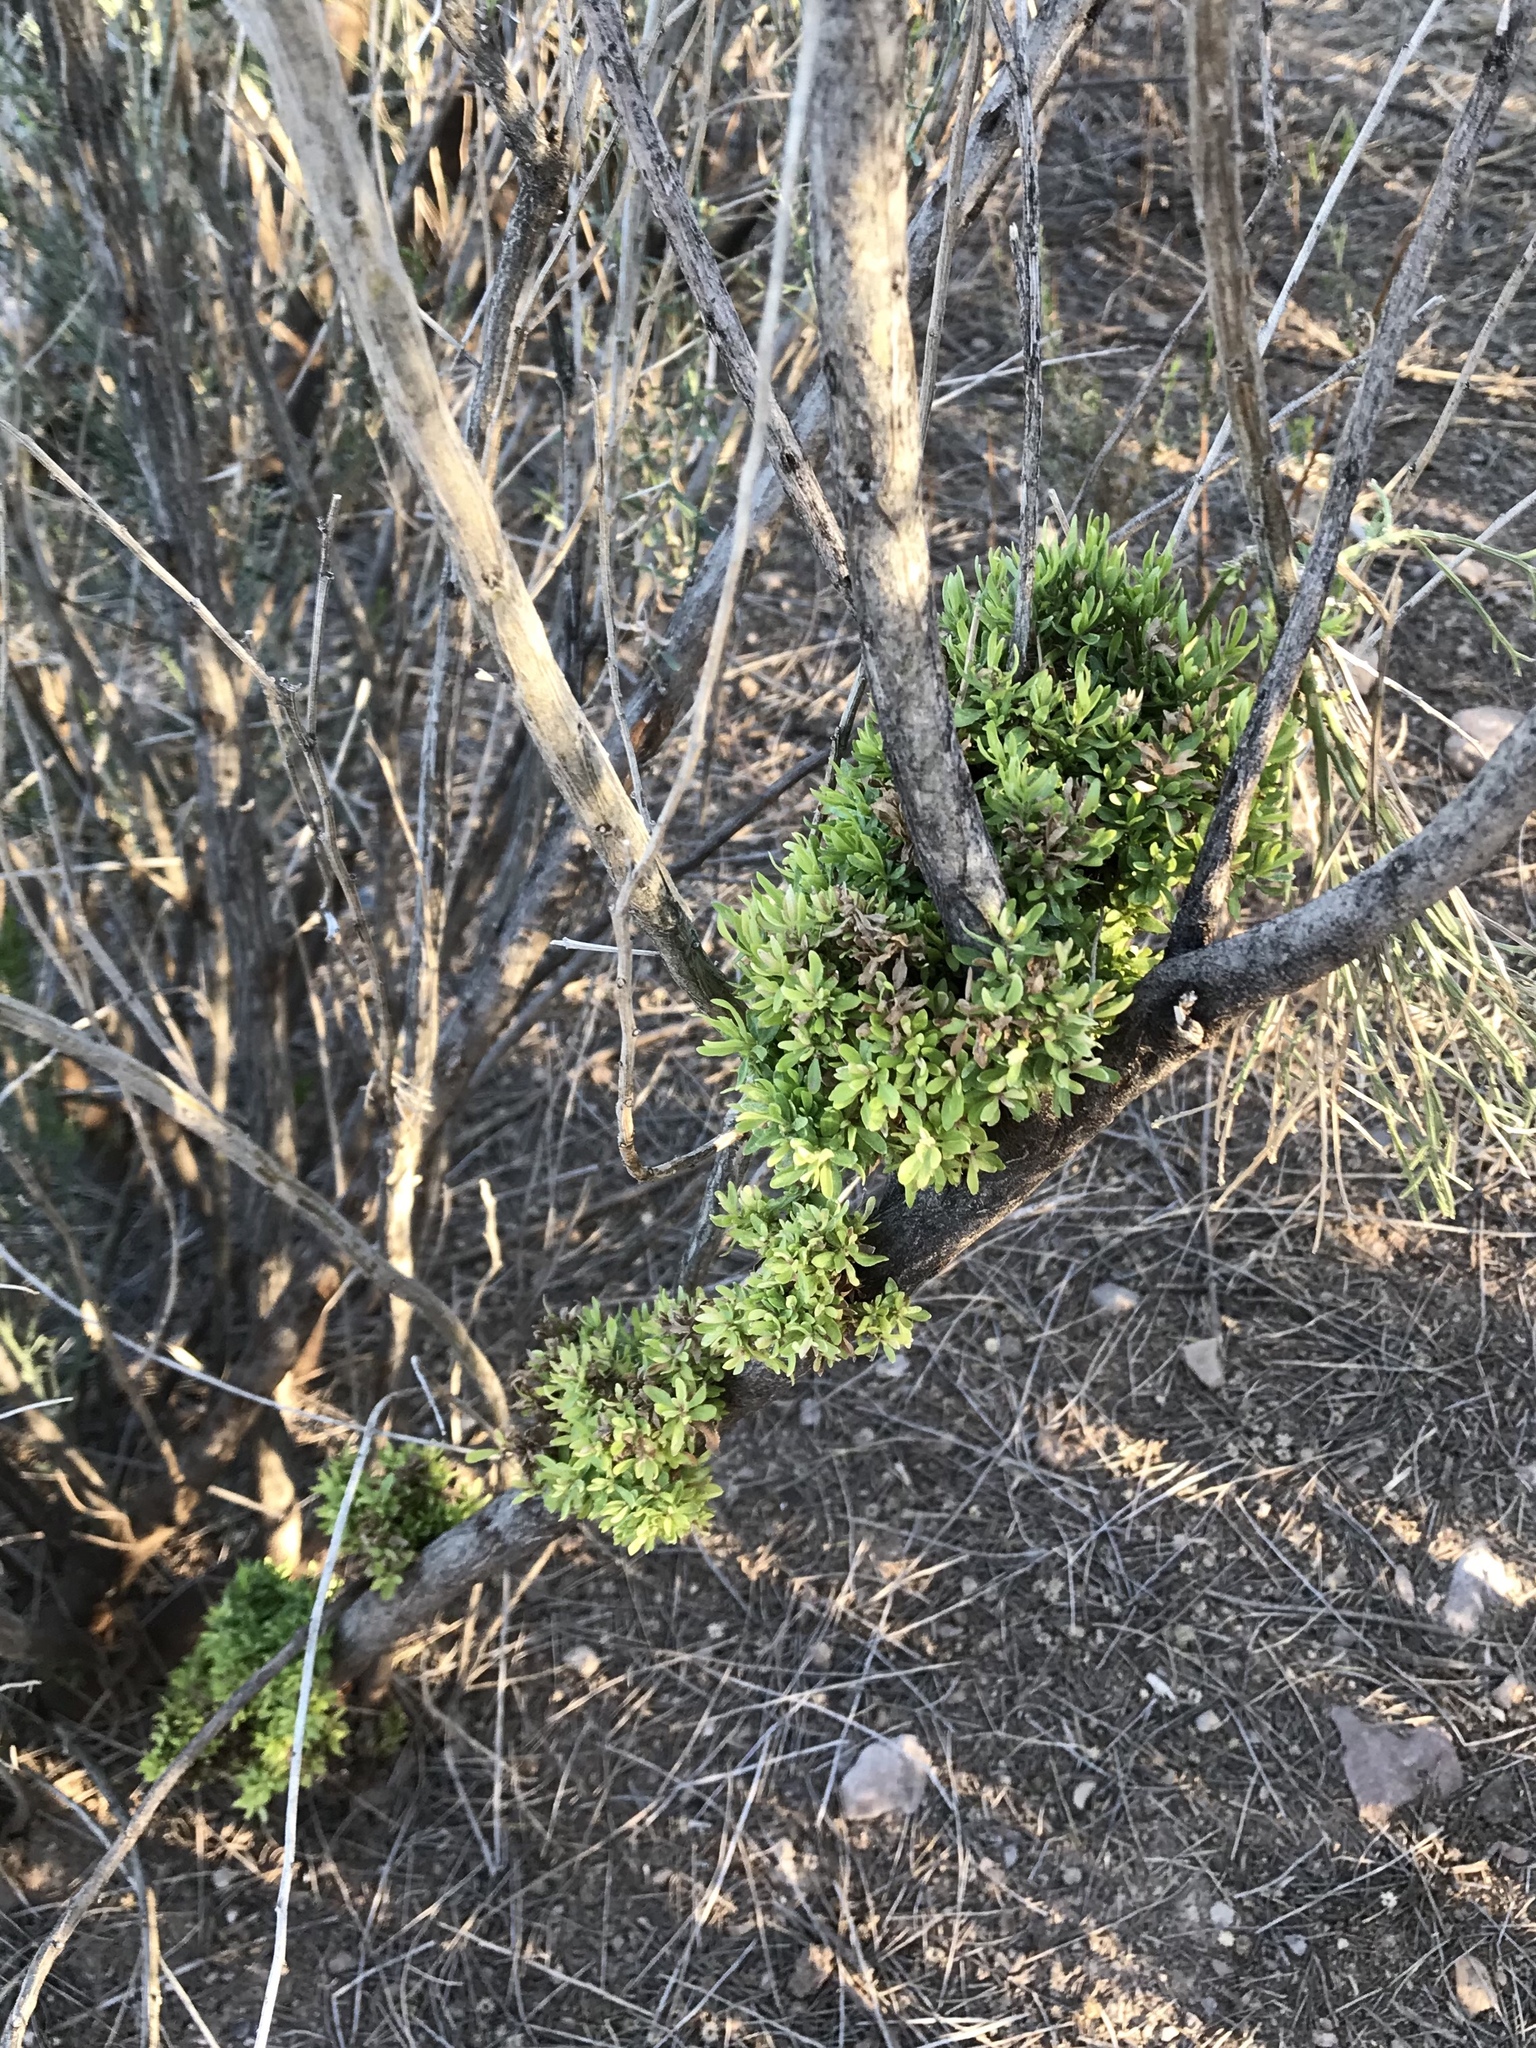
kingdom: Plantae
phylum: Tracheophyta
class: Magnoliopsida
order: Asterales
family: Asteraceae
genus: Baccharis
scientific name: Baccharis sarothroides
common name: Desert-broom
